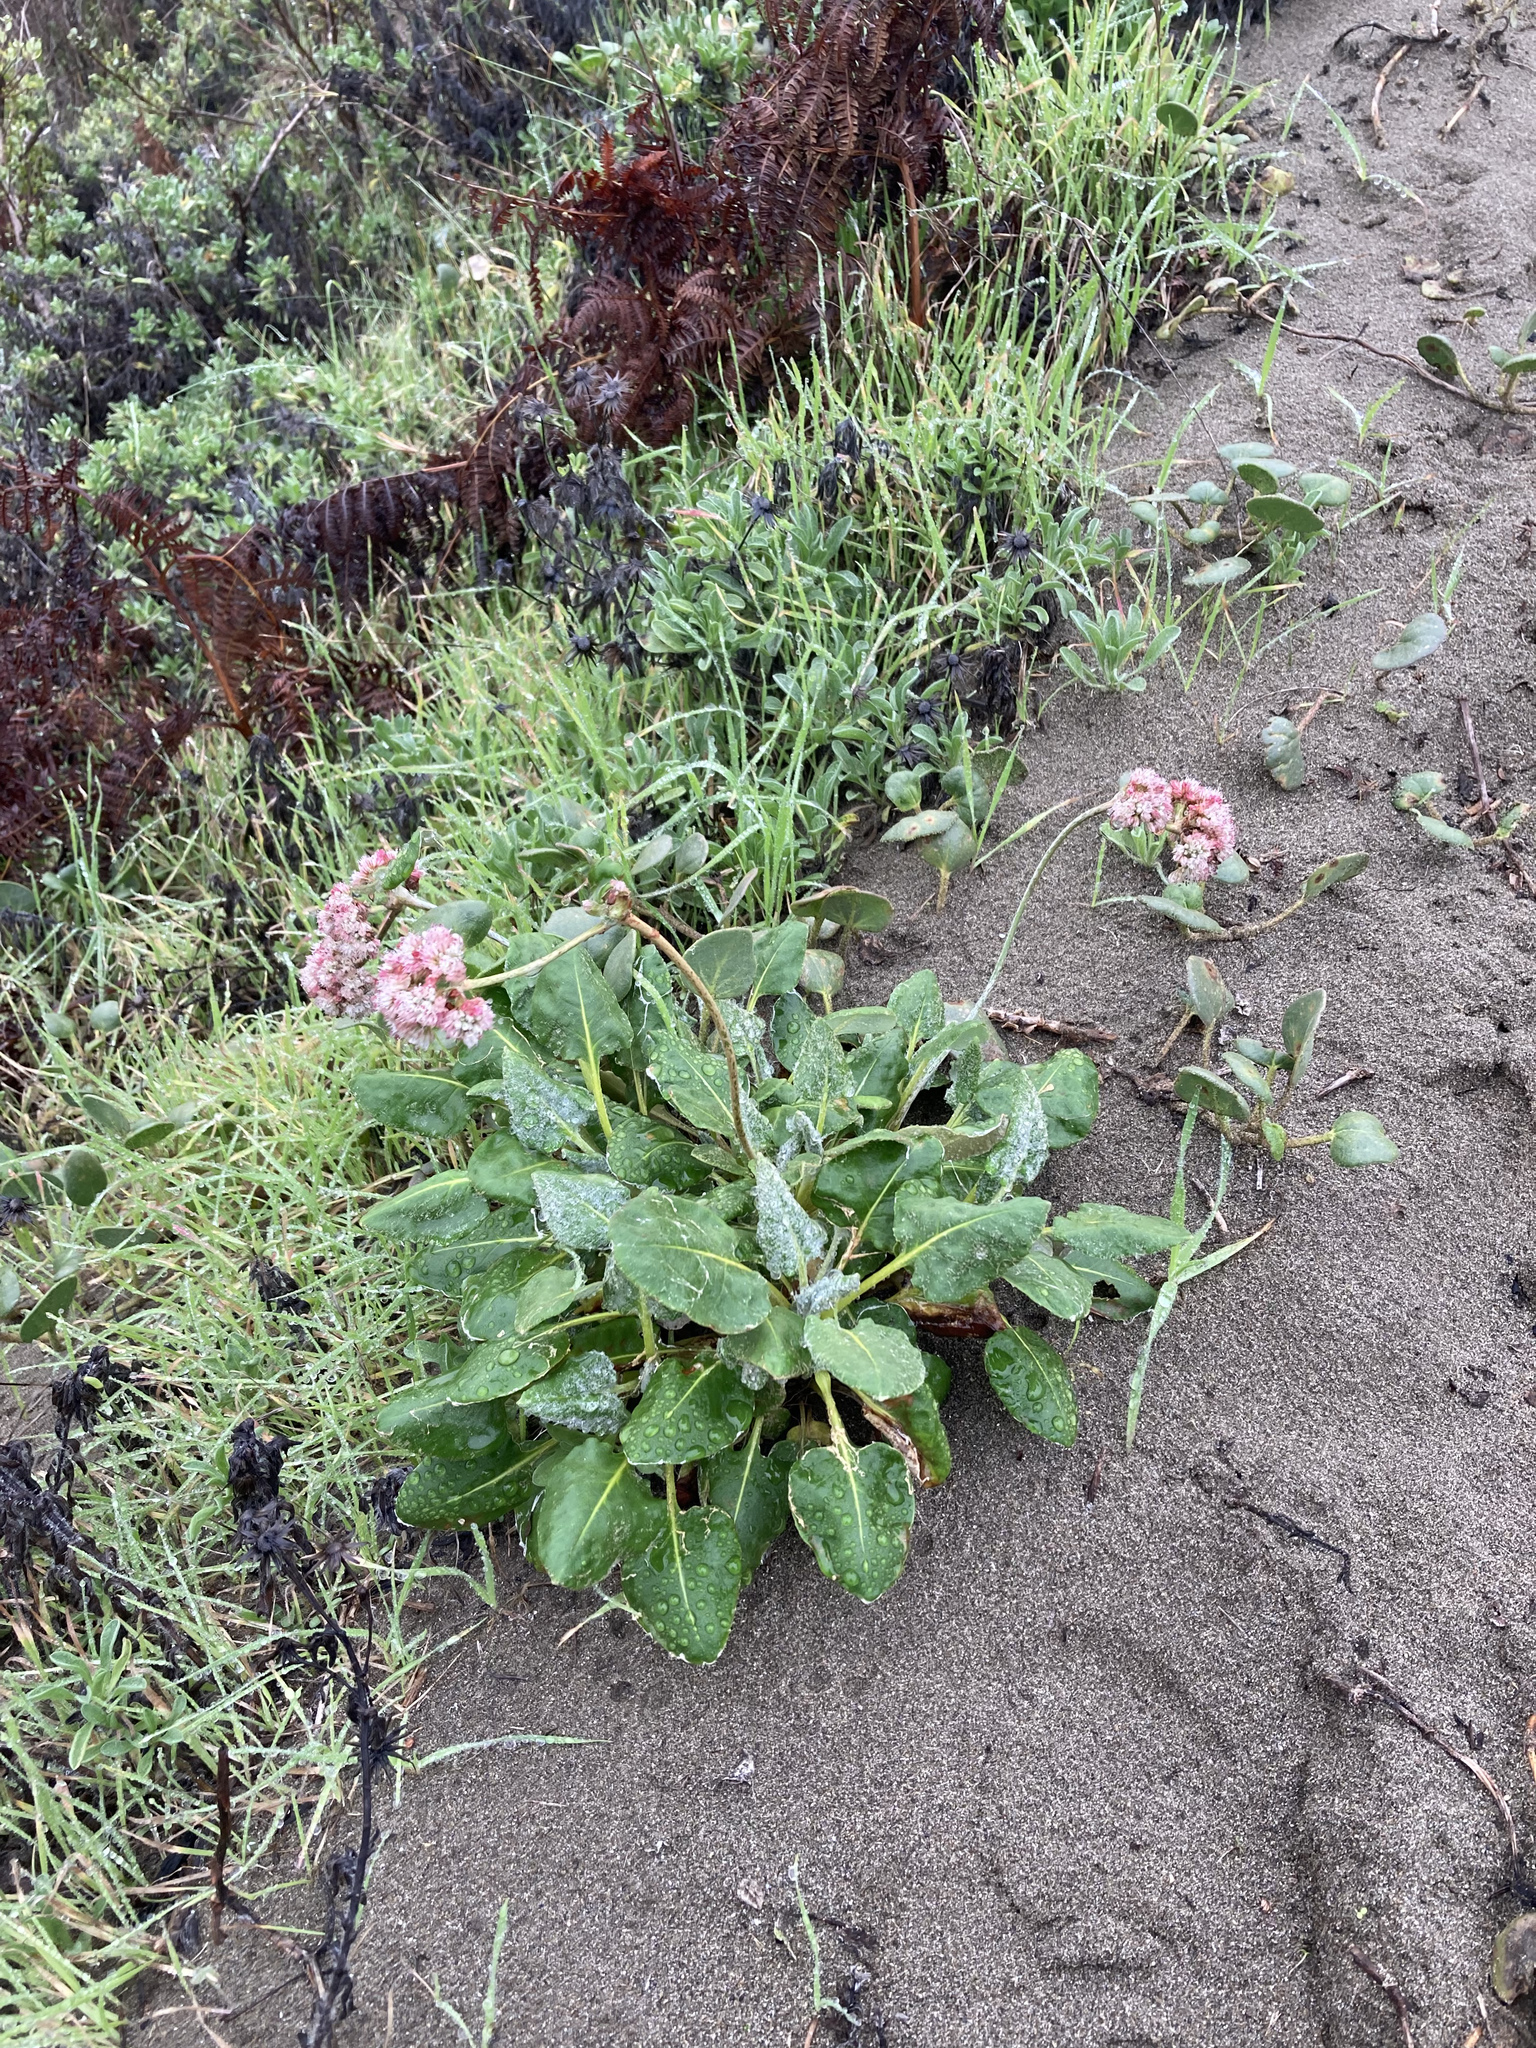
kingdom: Plantae
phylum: Tracheophyta
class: Magnoliopsida
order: Caryophyllales
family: Polygonaceae
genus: Eriogonum
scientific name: Eriogonum latifolium
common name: Seaside wild buckwheat
